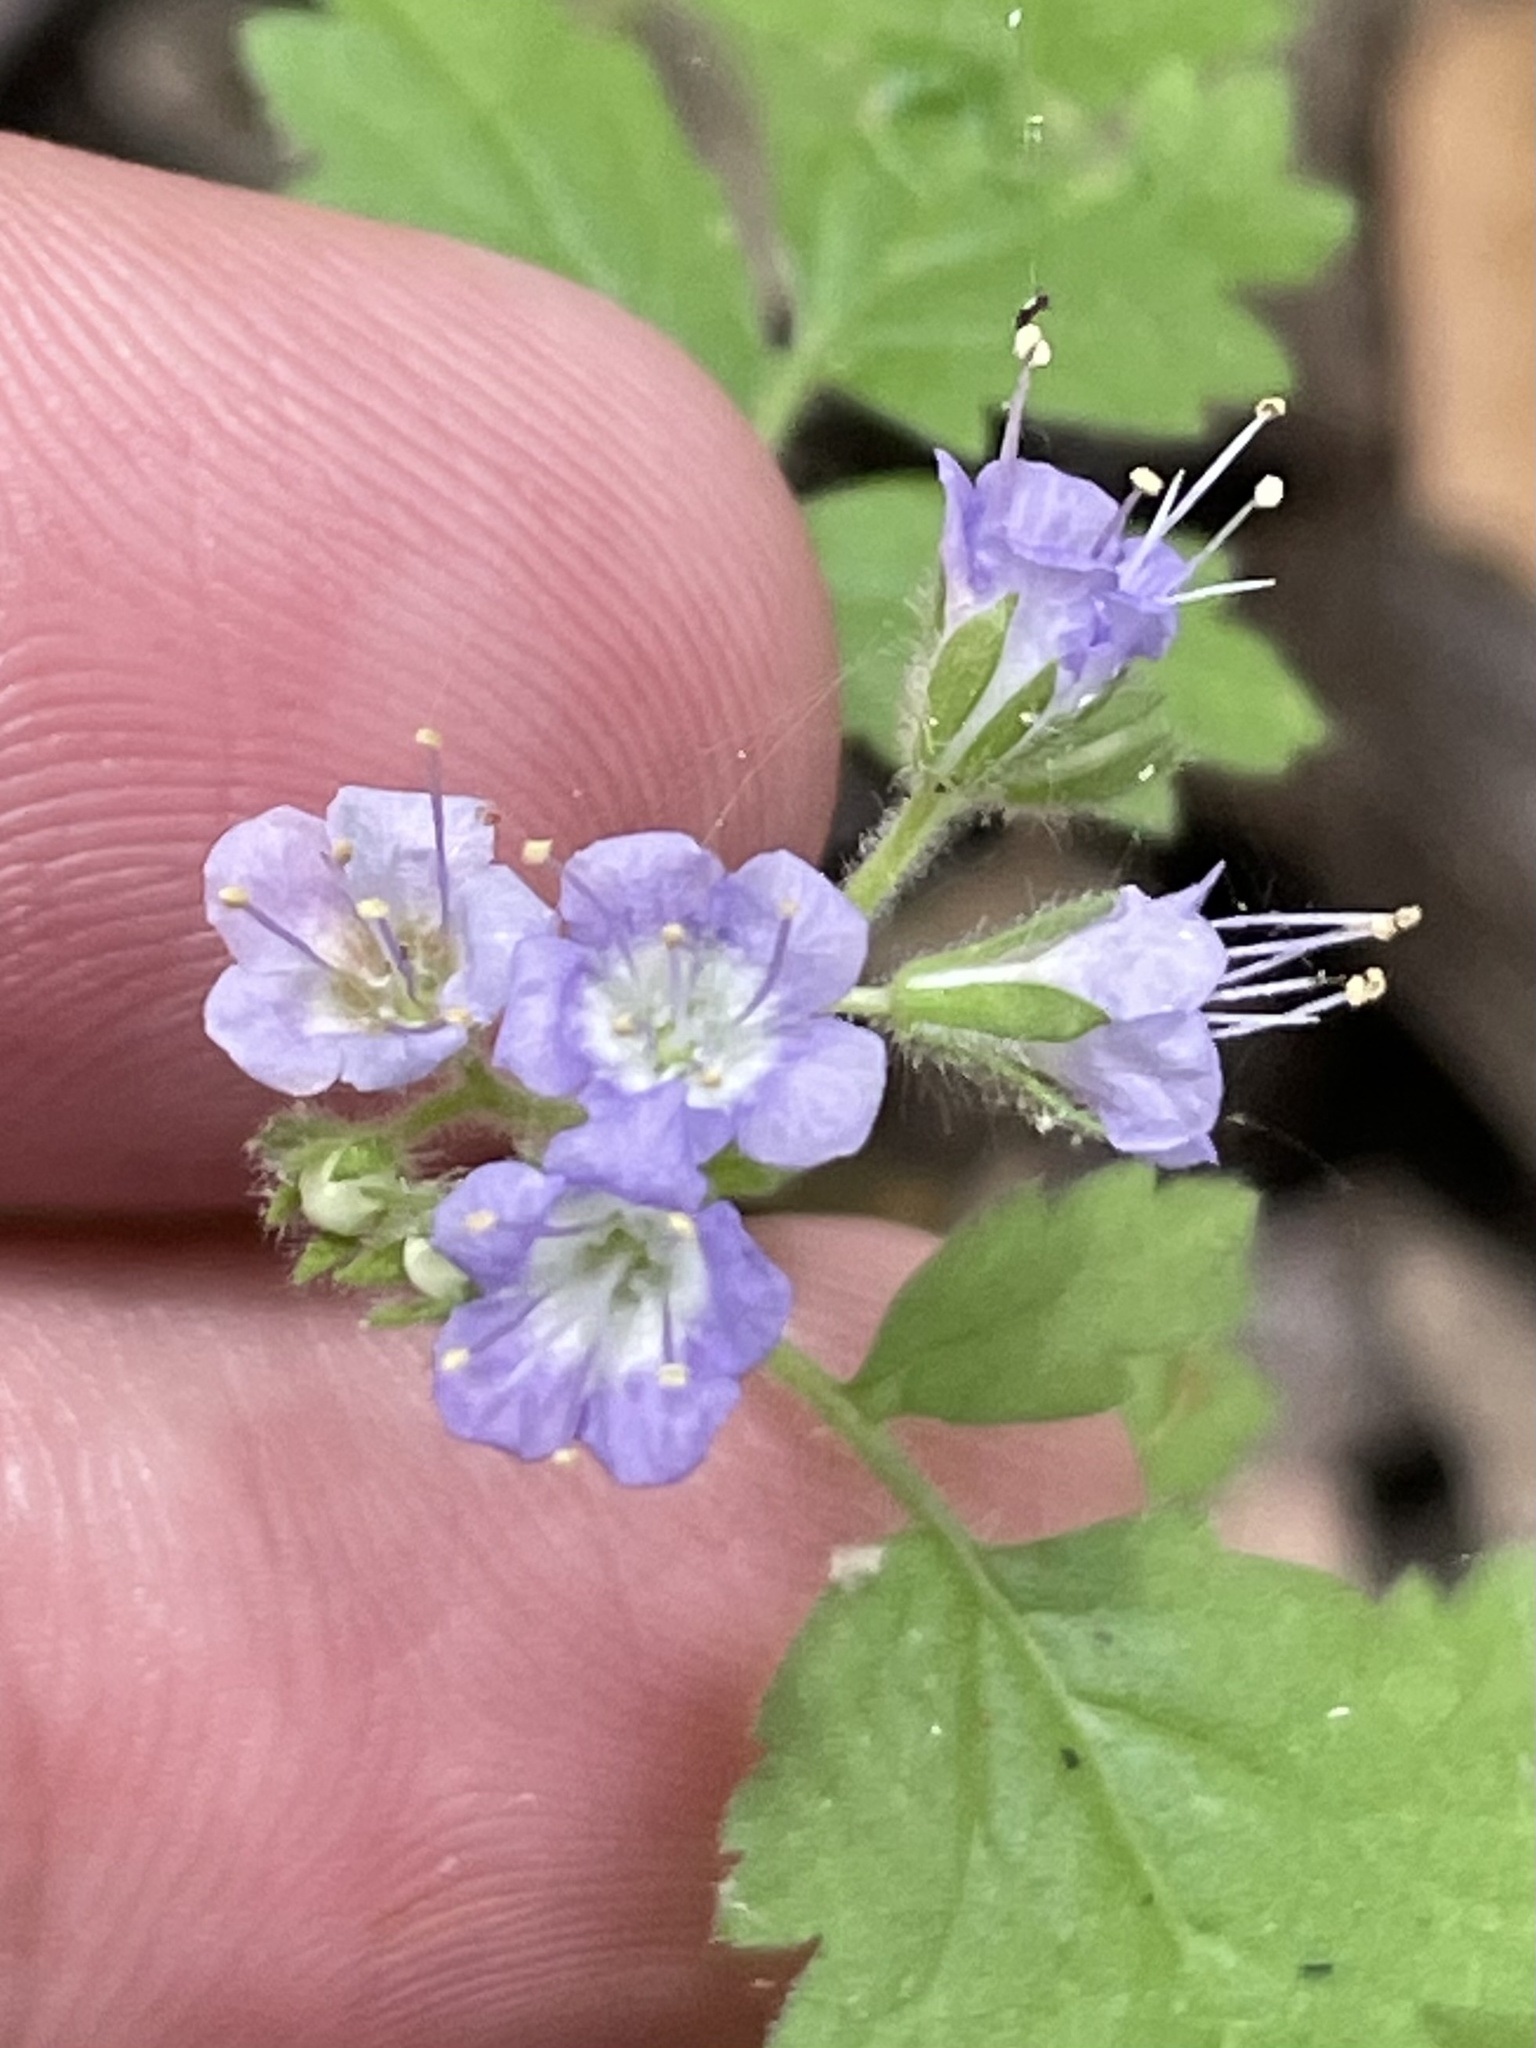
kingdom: Plantae
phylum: Tracheophyta
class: Magnoliopsida
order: Boraginales
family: Hydrophyllaceae
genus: Phacelia
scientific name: Phacelia congesta
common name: Blue curls
